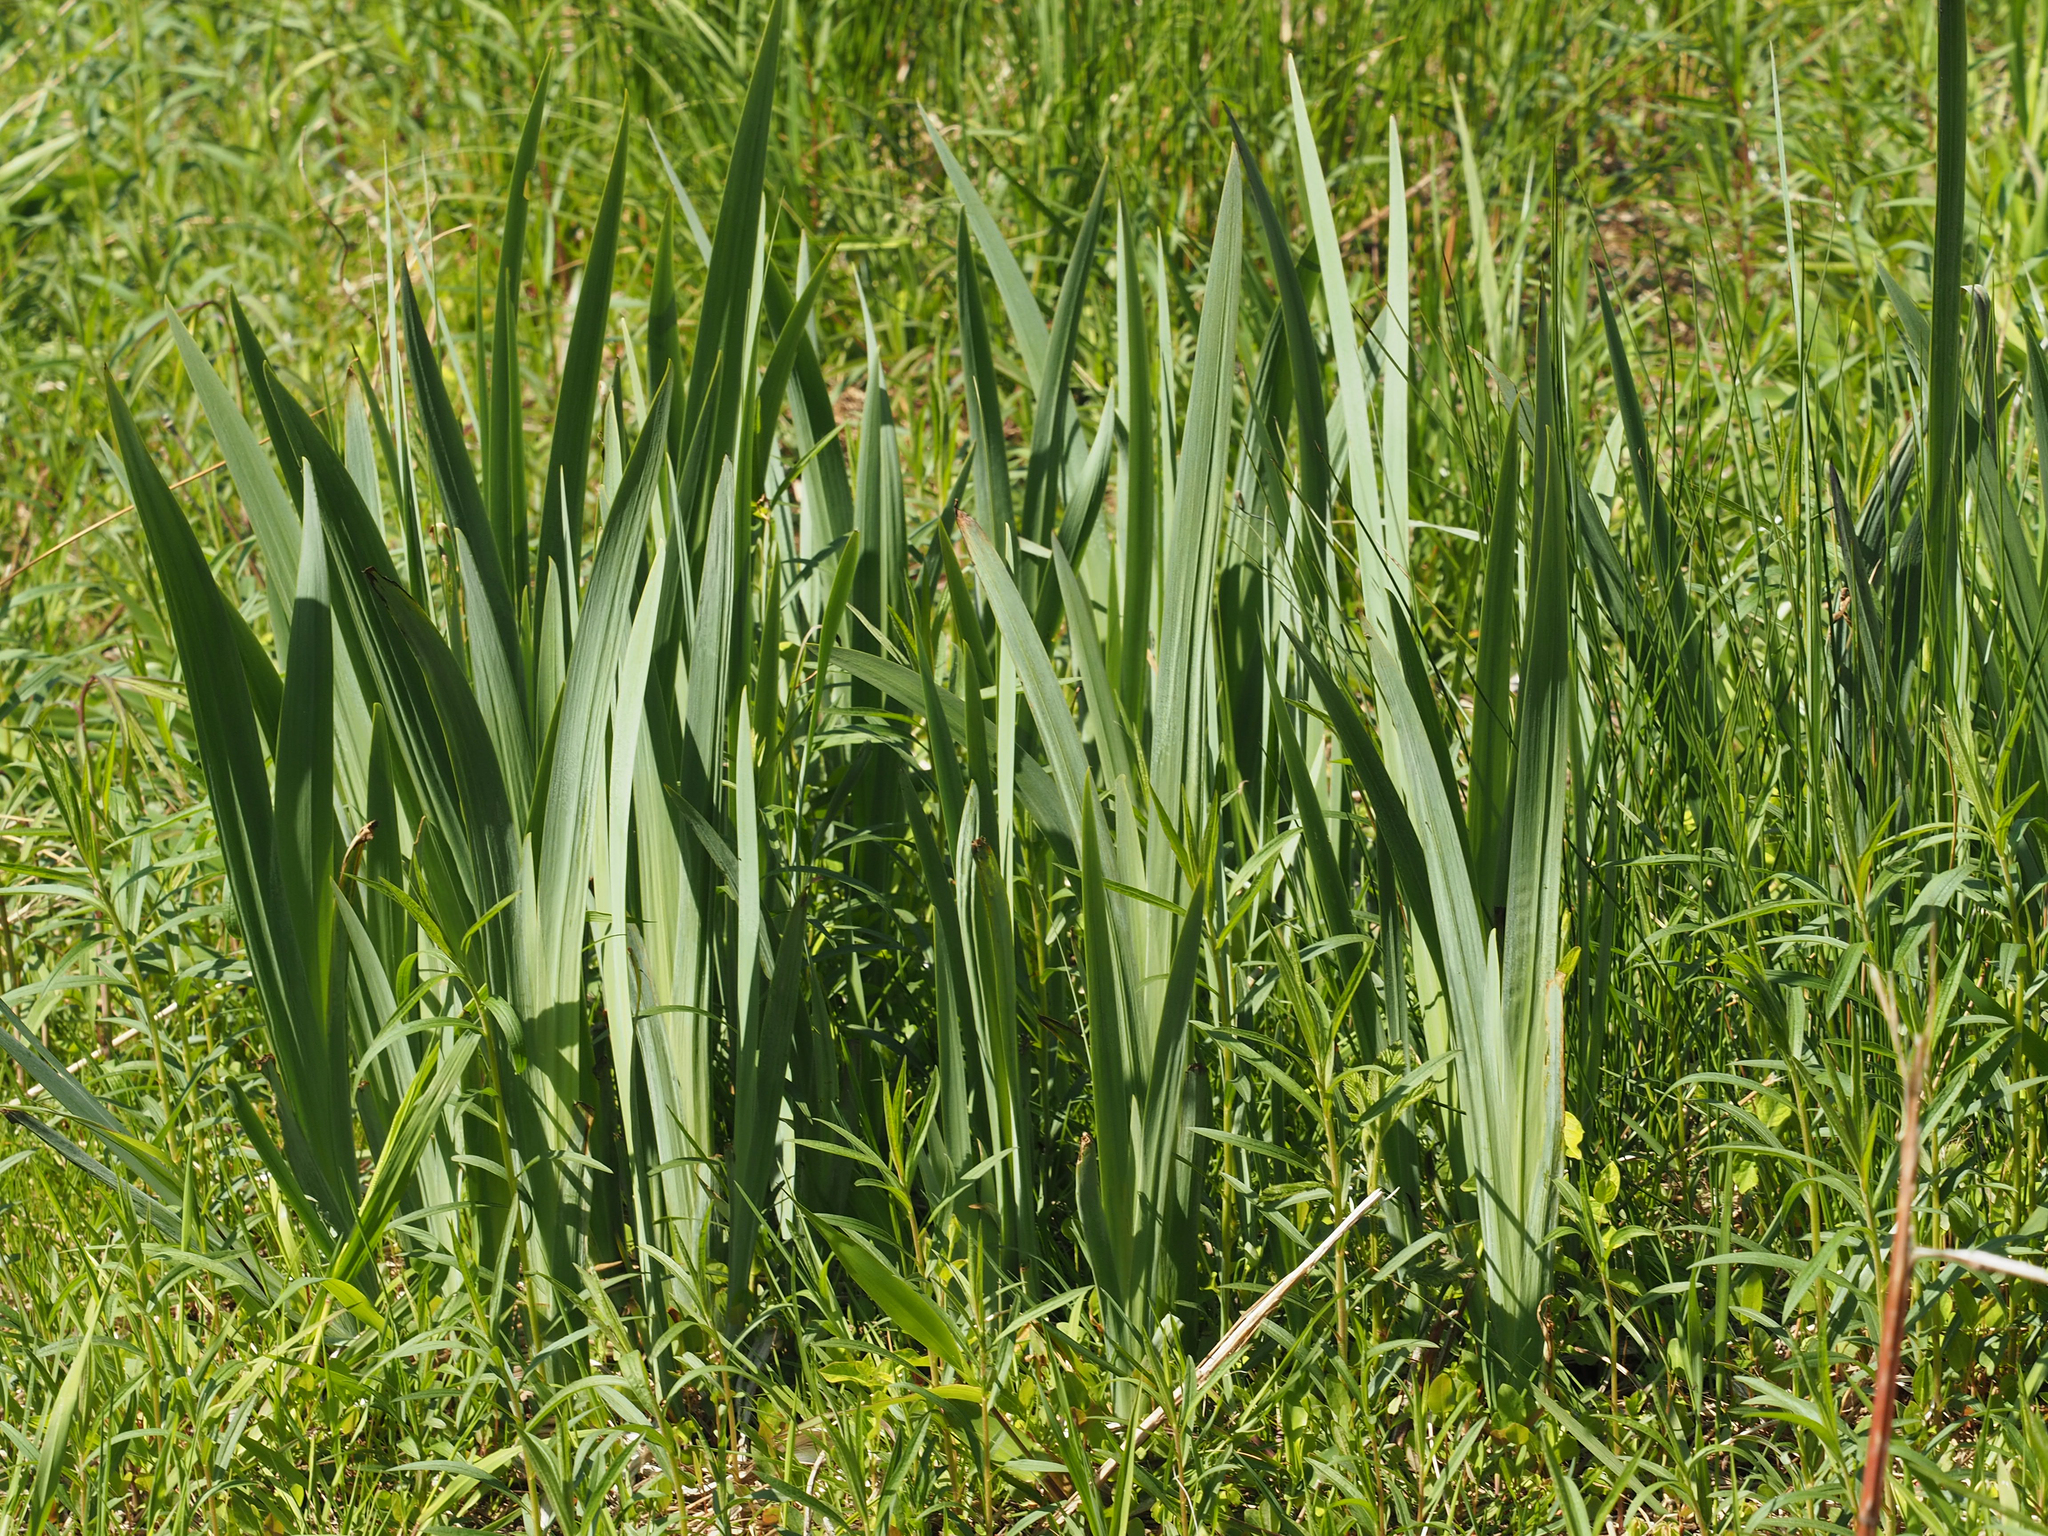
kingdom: Plantae
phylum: Tracheophyta
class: Liliopsida
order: Asparagales
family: Iridaceae
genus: Iris
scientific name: Iris pseudacorus
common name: Yellow flag
